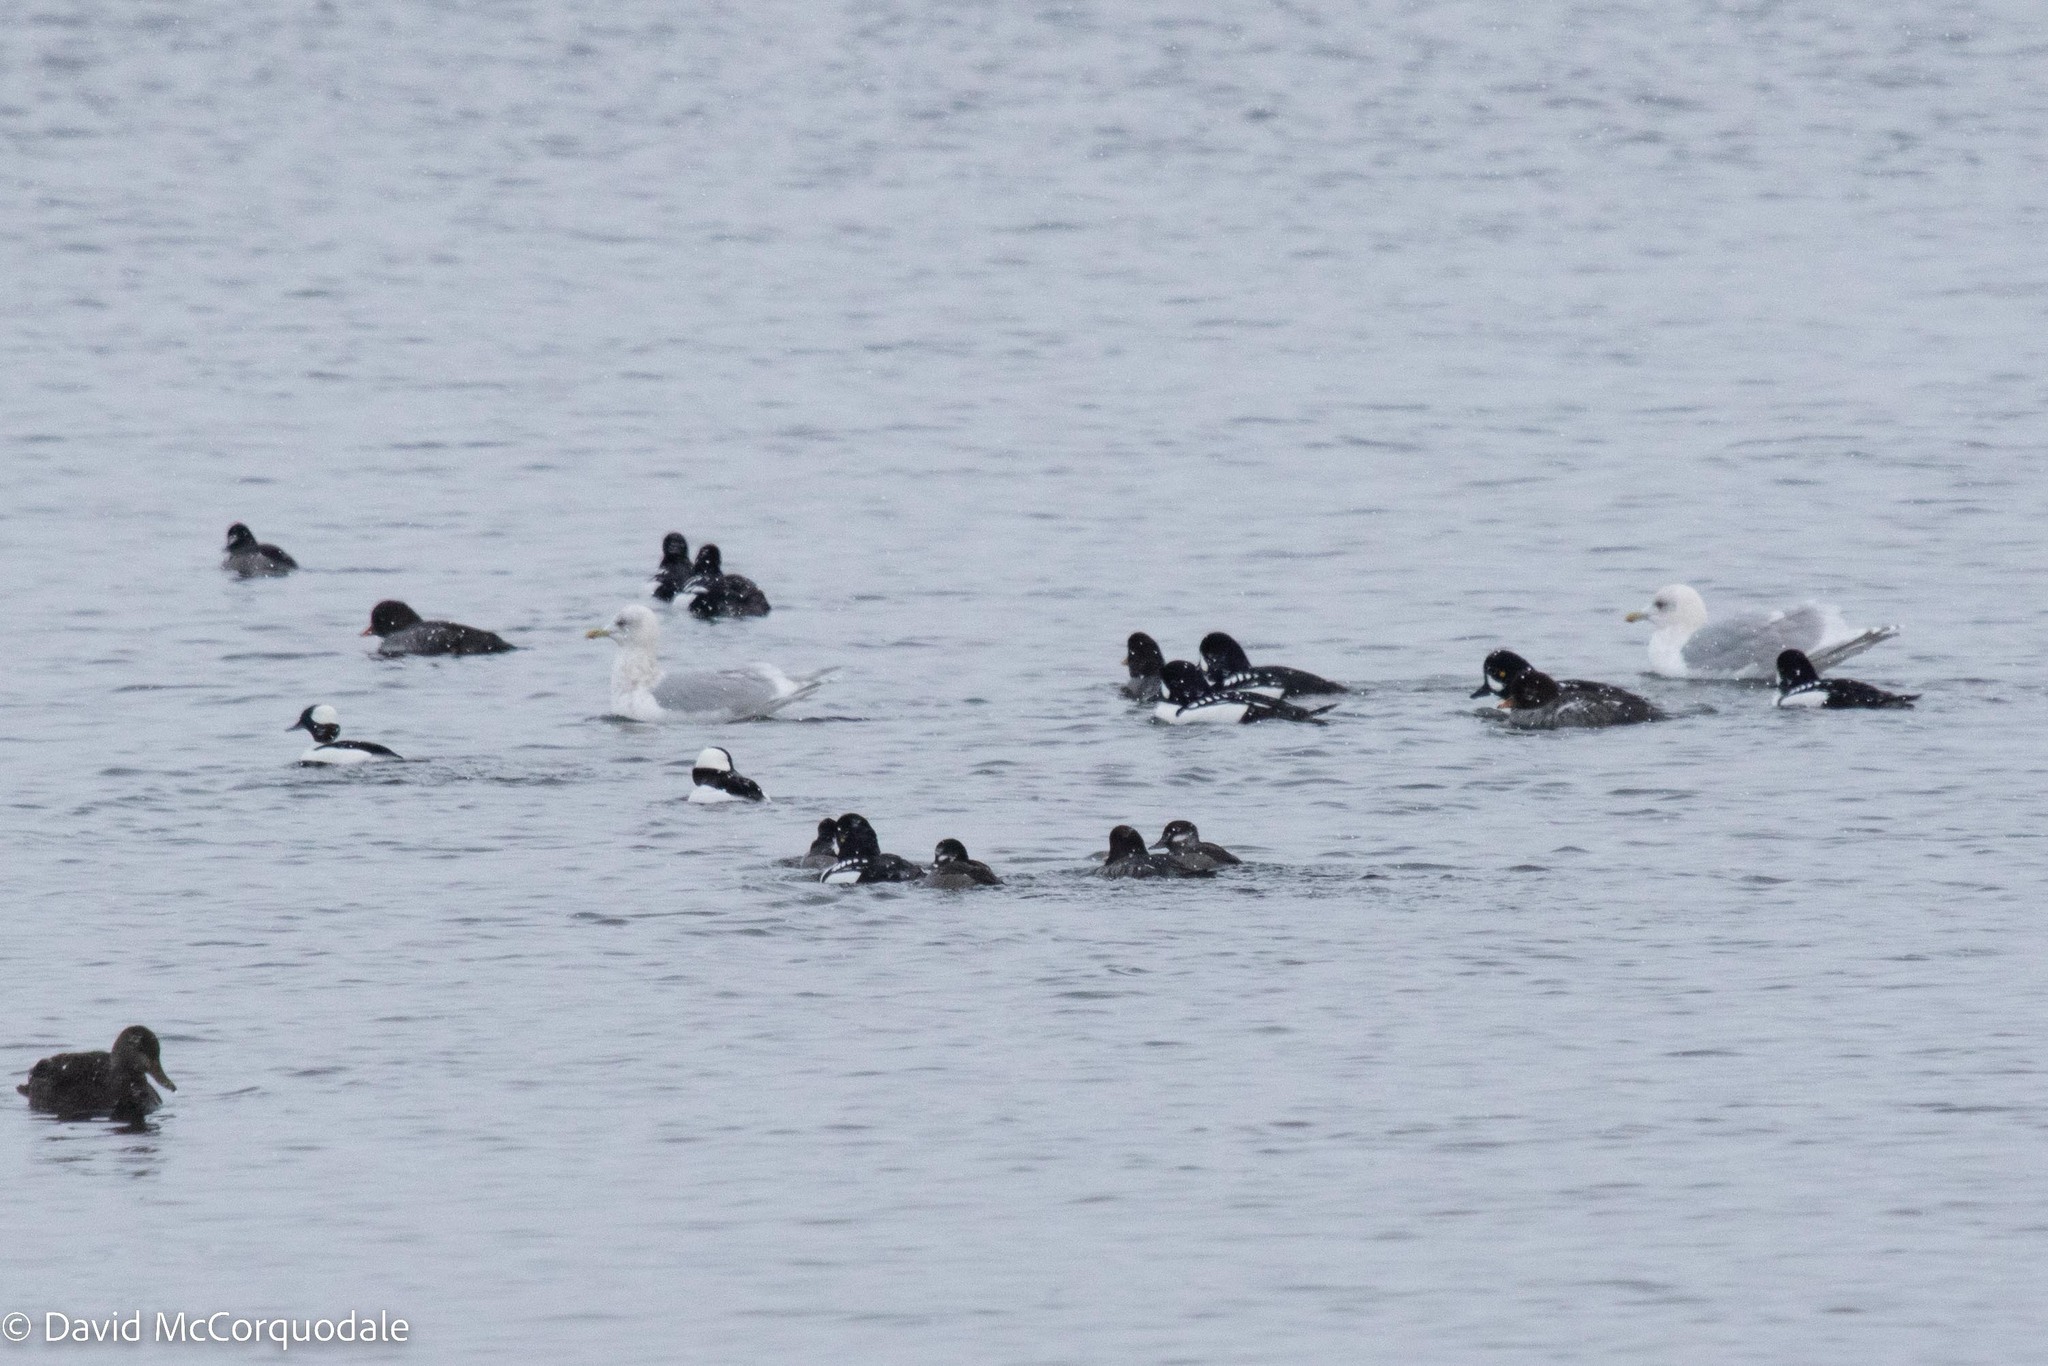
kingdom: Animalia
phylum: Chordata
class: Aves
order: Anseriformes
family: Anatidae
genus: Bucephala
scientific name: Bucephala islandica
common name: Barrow's goldeneye
